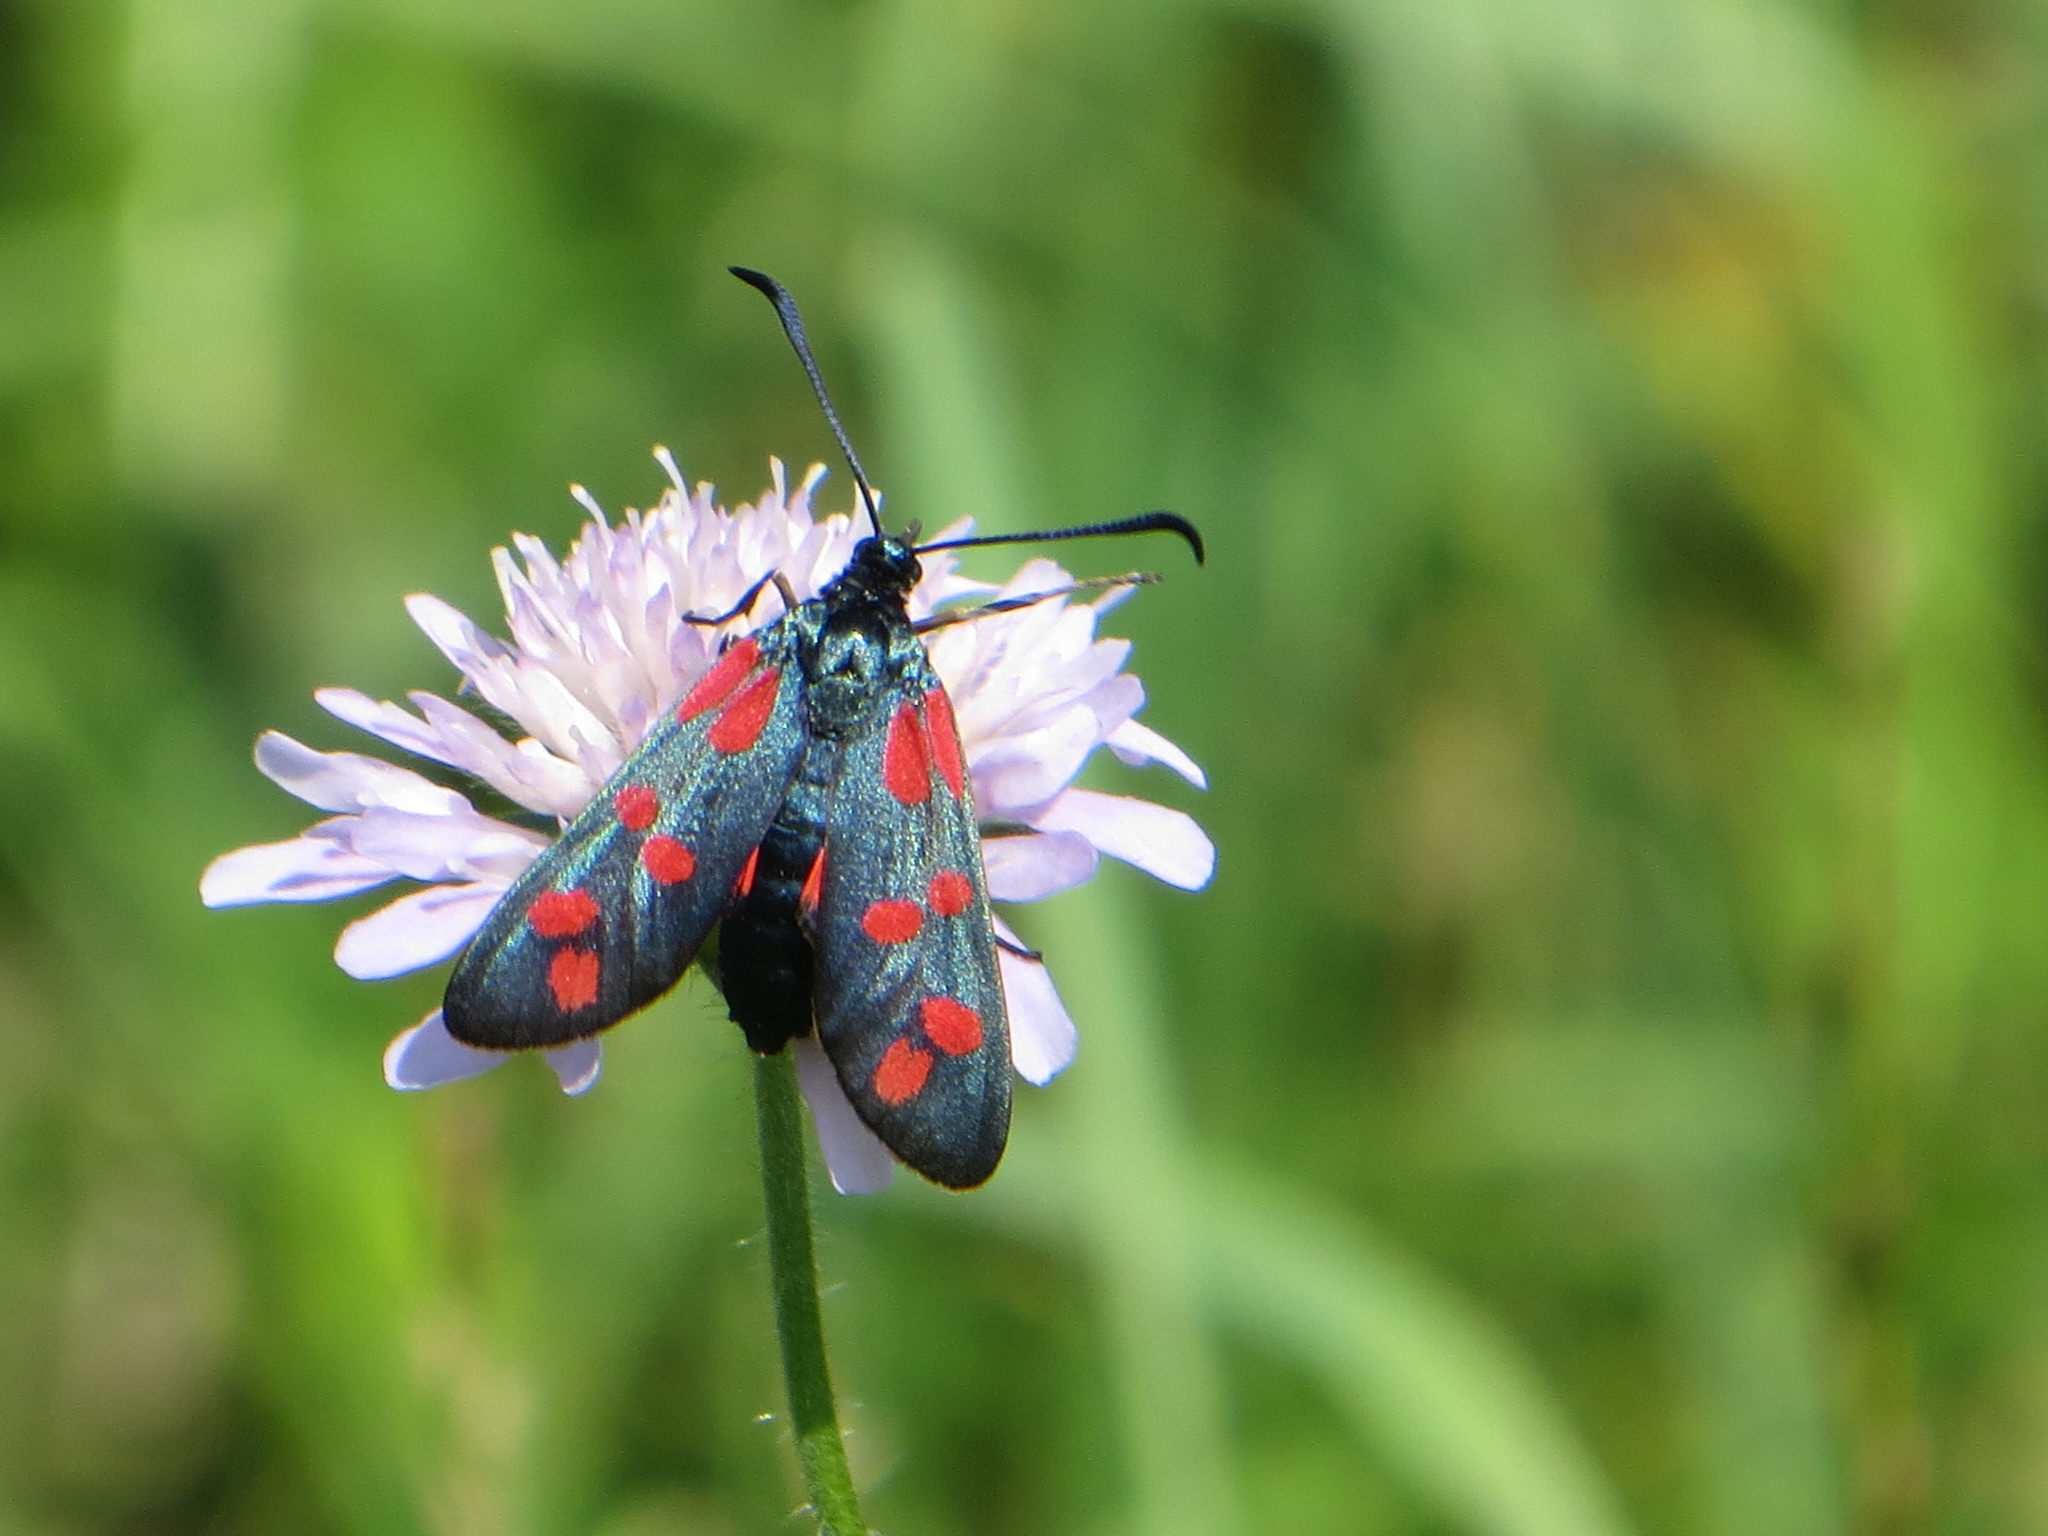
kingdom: Animalia
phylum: Arthropoda
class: Insecta
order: Lepidoptera
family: Zygaenidae
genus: Zygaena
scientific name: Zygaena filipendulae
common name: Six-spot burnet
